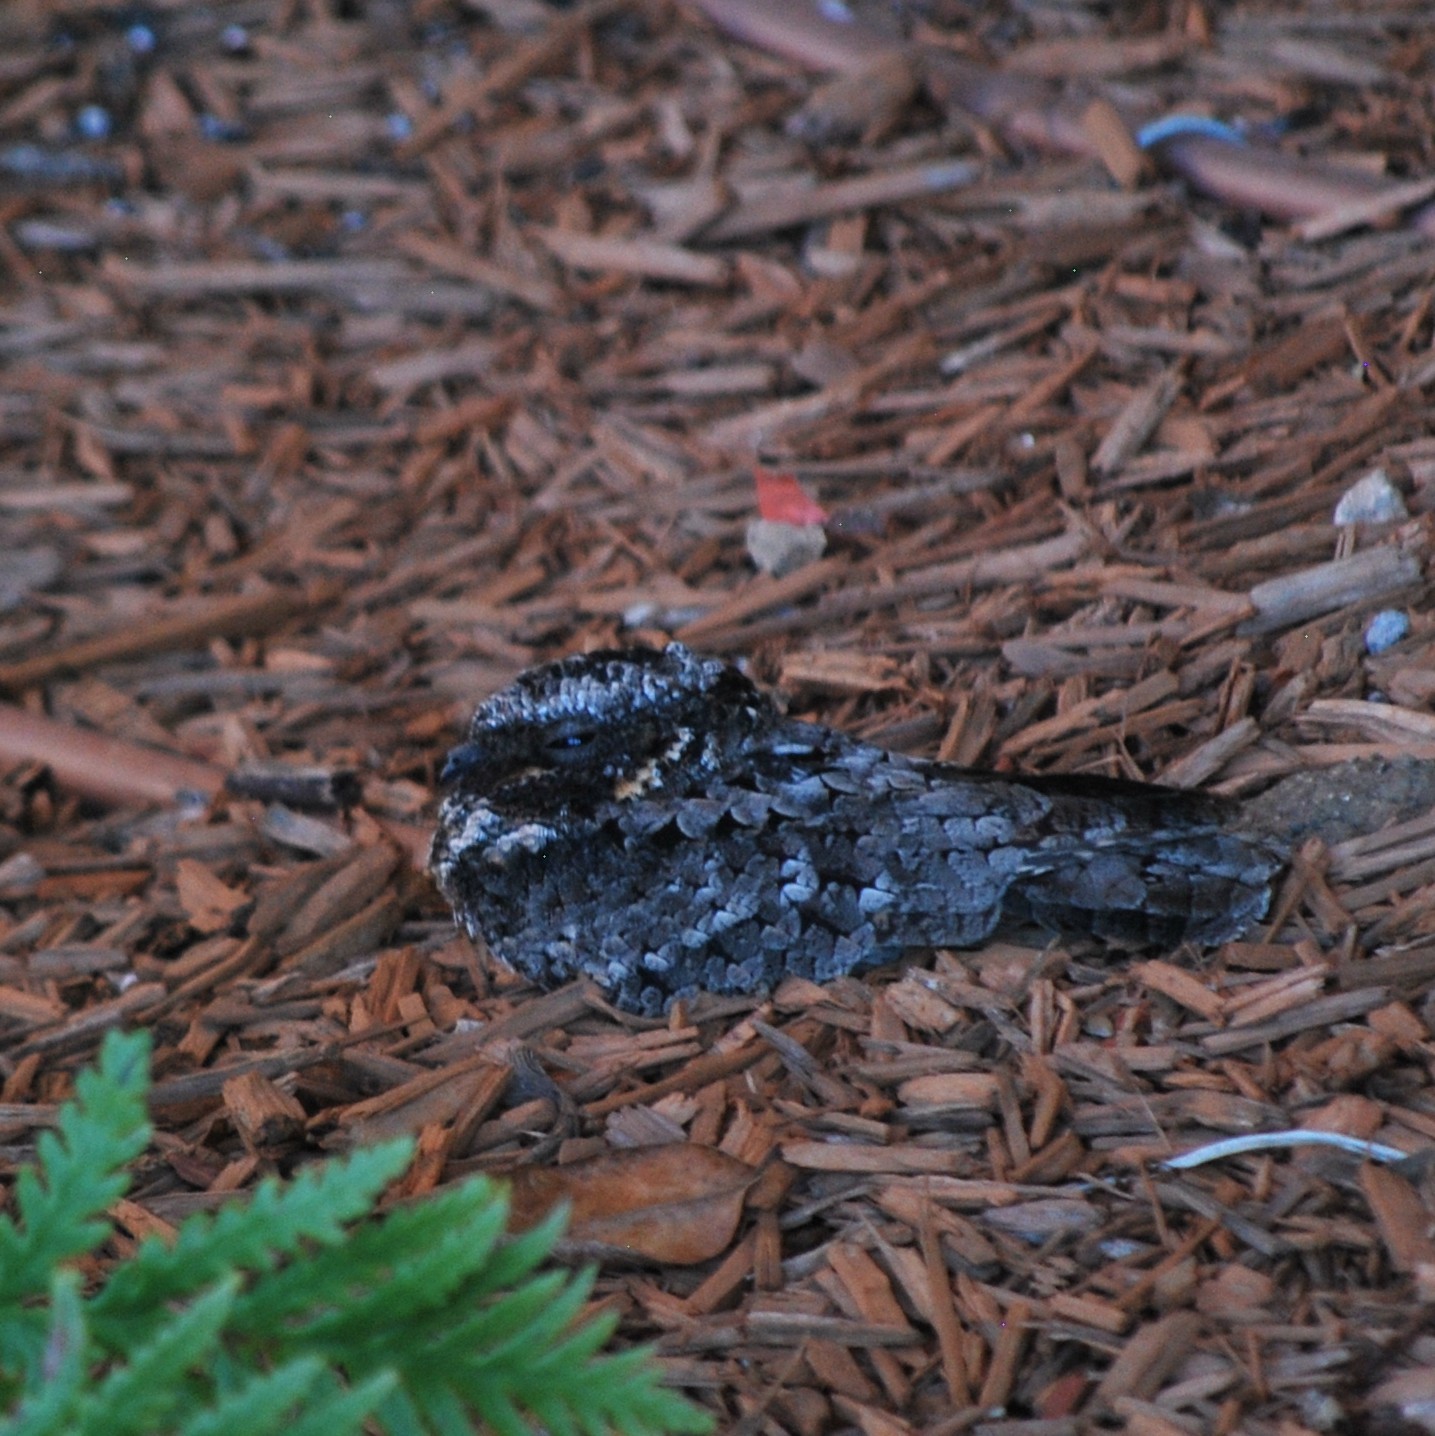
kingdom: Animalia
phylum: Chordata
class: Aves
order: Caprimulgiformes
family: Caprimulgidae
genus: Phalaenoptilus
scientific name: Phalaenoptilus nuttallii
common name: Common poorwill
